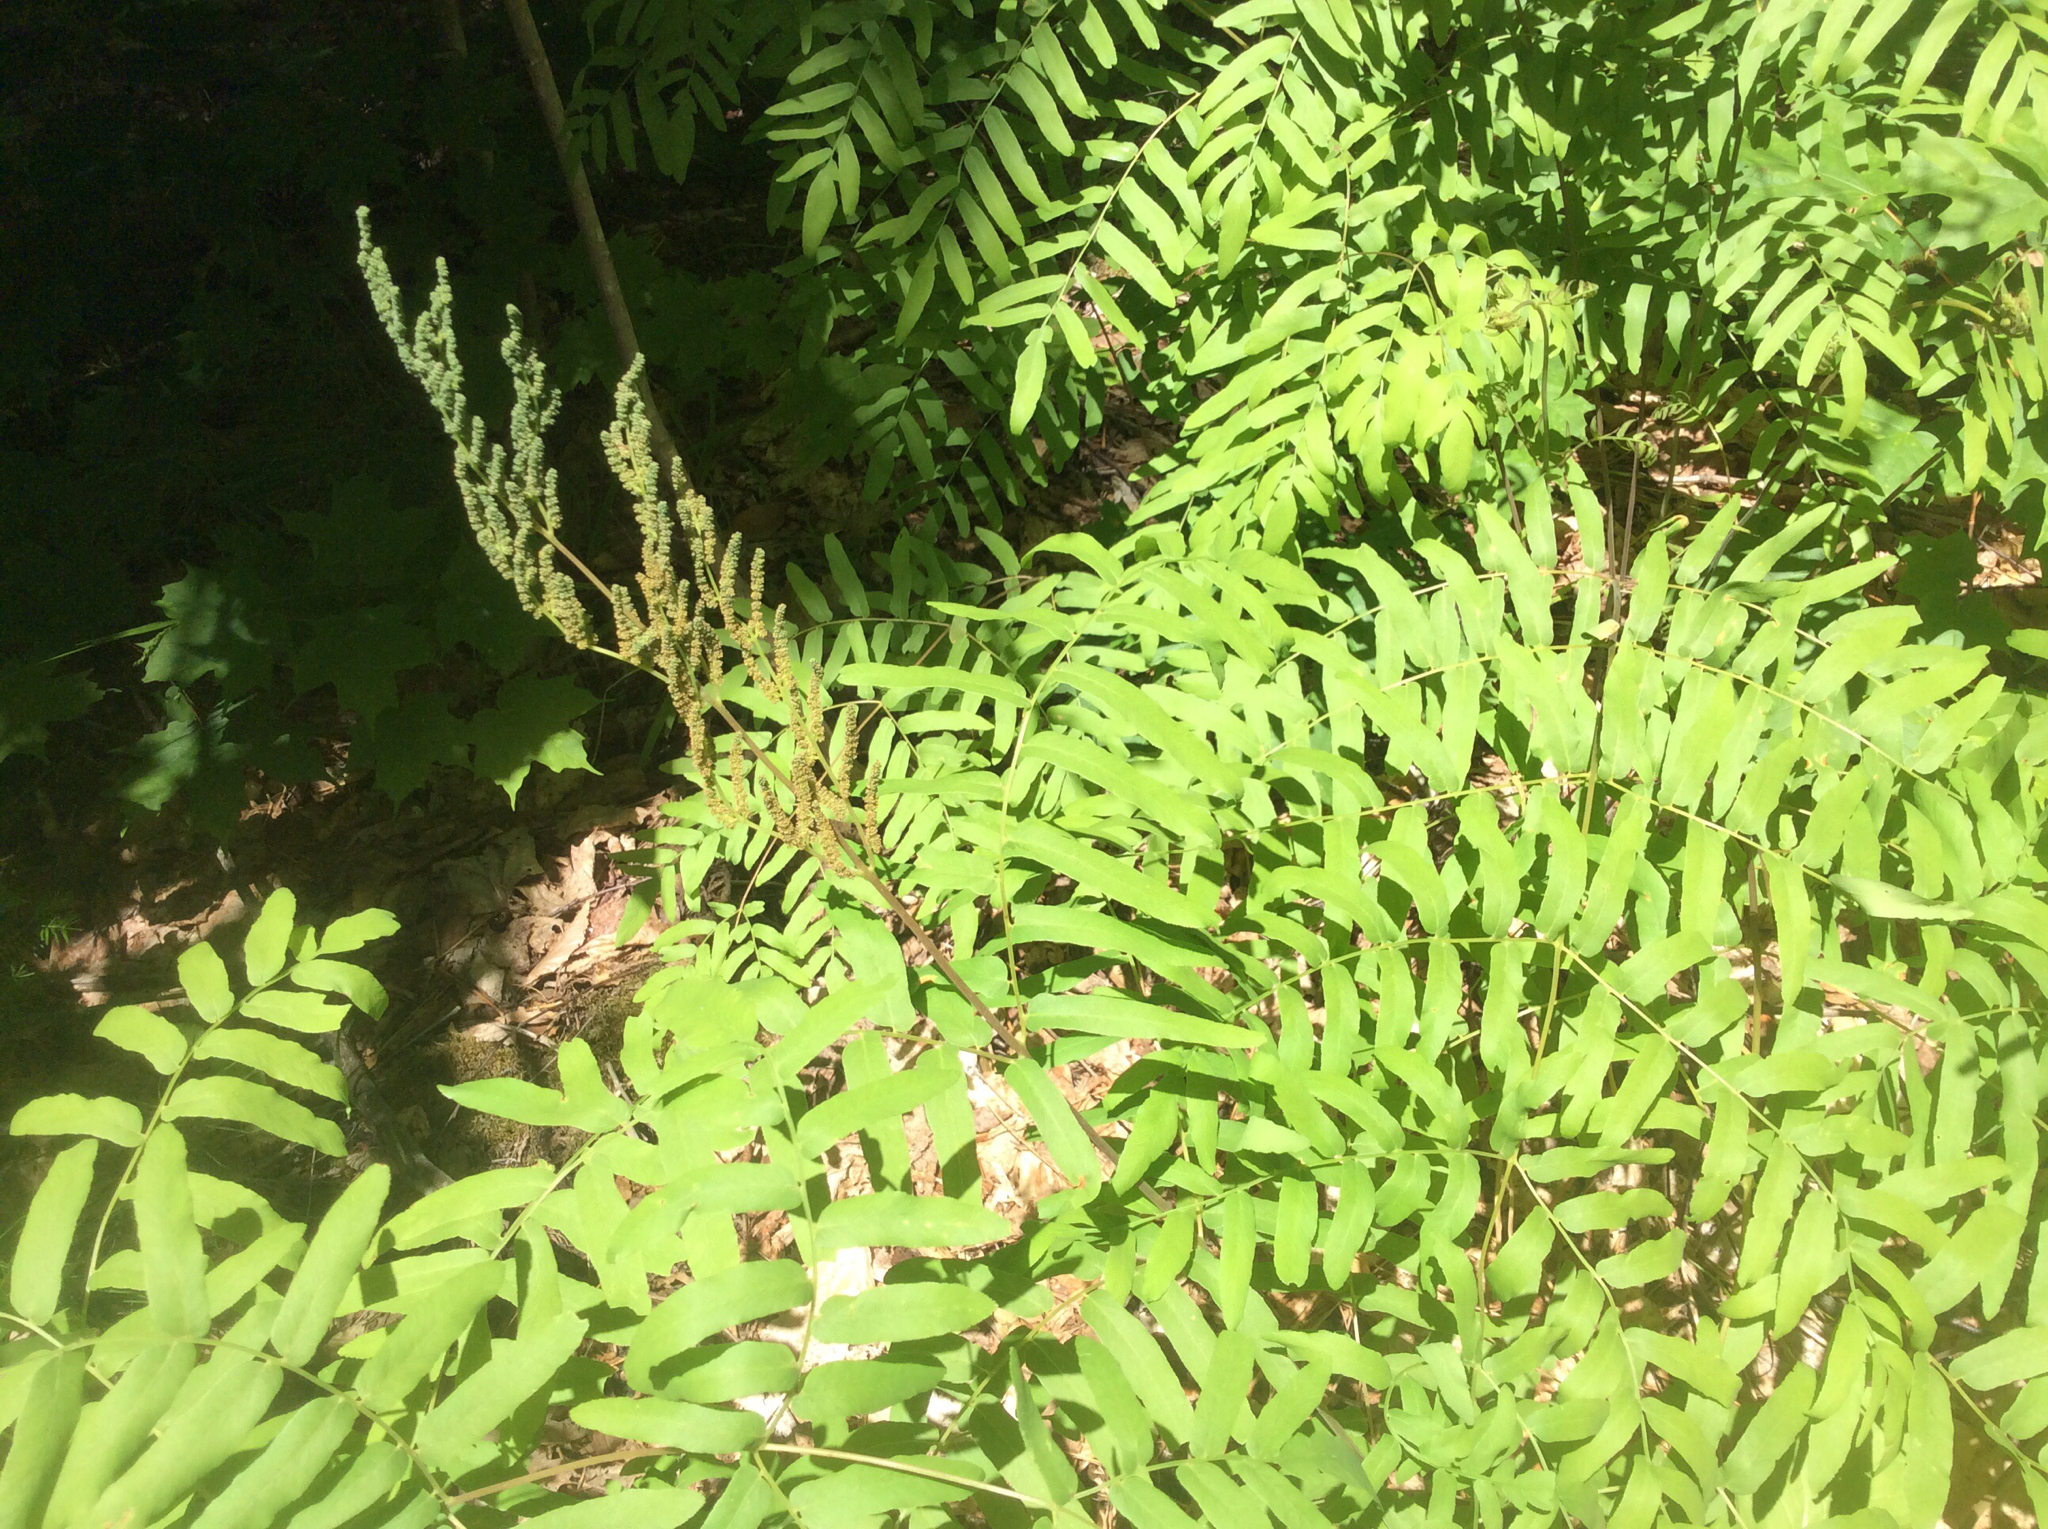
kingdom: Plantae
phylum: Tracheophyta
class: Polypodiopsida
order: Osmundales
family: Osmundaceae
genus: Osmunda
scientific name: Osmunda spectabilis
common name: American royal fern
